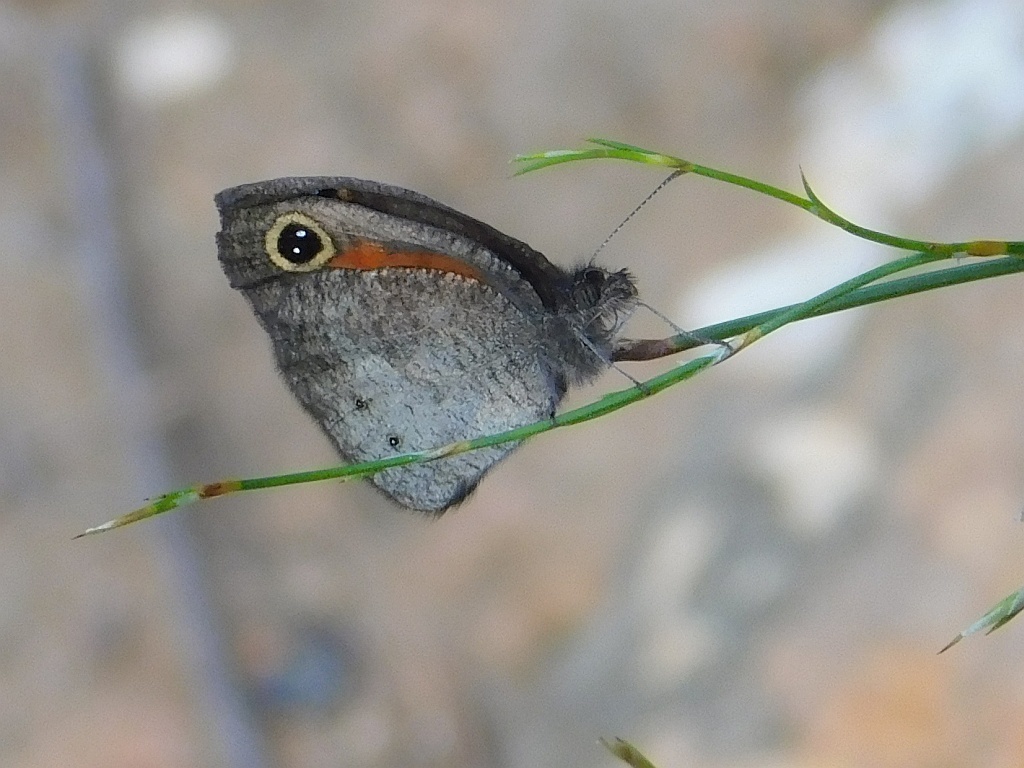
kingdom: Animalia
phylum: Arthropoda
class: Insecta
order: Lepidoptera
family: Nymphalidae
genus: Pseudonympha
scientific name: Pseudonympha magus
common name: Silver-bottom brown
